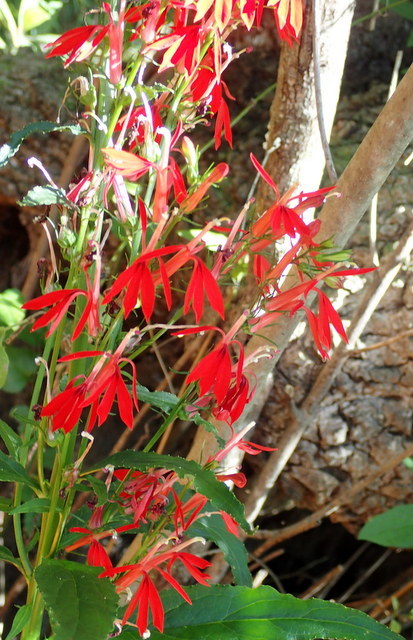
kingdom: Plantae
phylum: Tracheophyta
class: Magnoliopsida
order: Asterales
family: Campanulaceae
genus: Lobelia
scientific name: Lobelia cardinalis
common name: Cardinal flower
